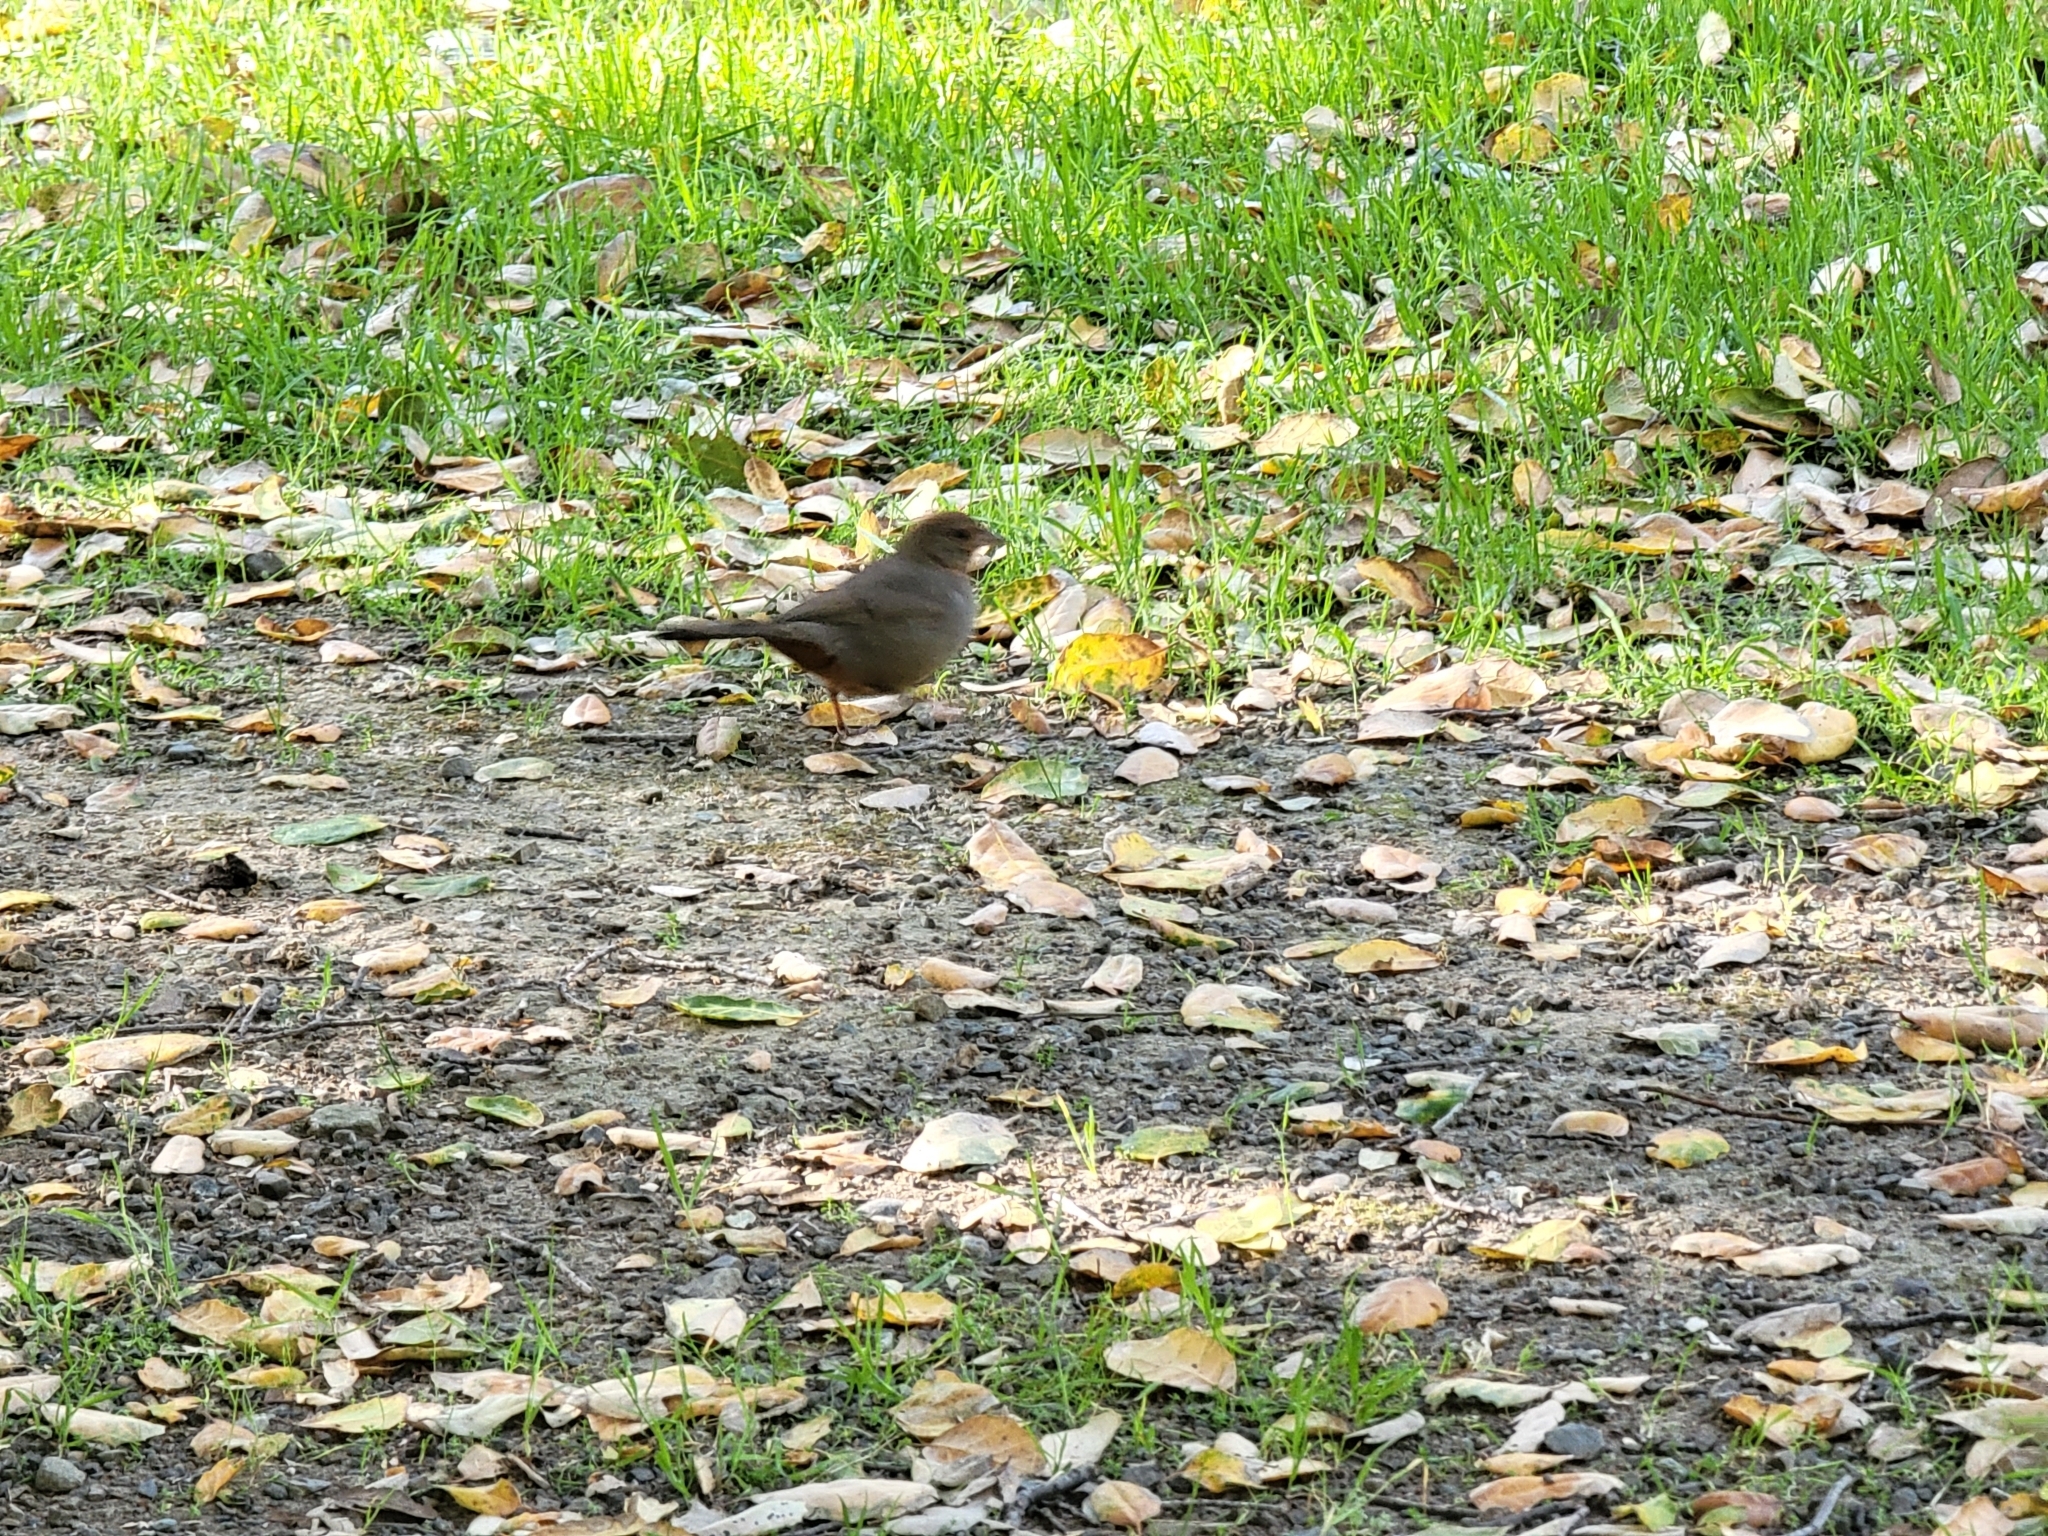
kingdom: Animalia
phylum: Chordata
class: Aves
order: Passeriformes
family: Passerellidae
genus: Melozone
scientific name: Melozone crissalis
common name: California towhee
